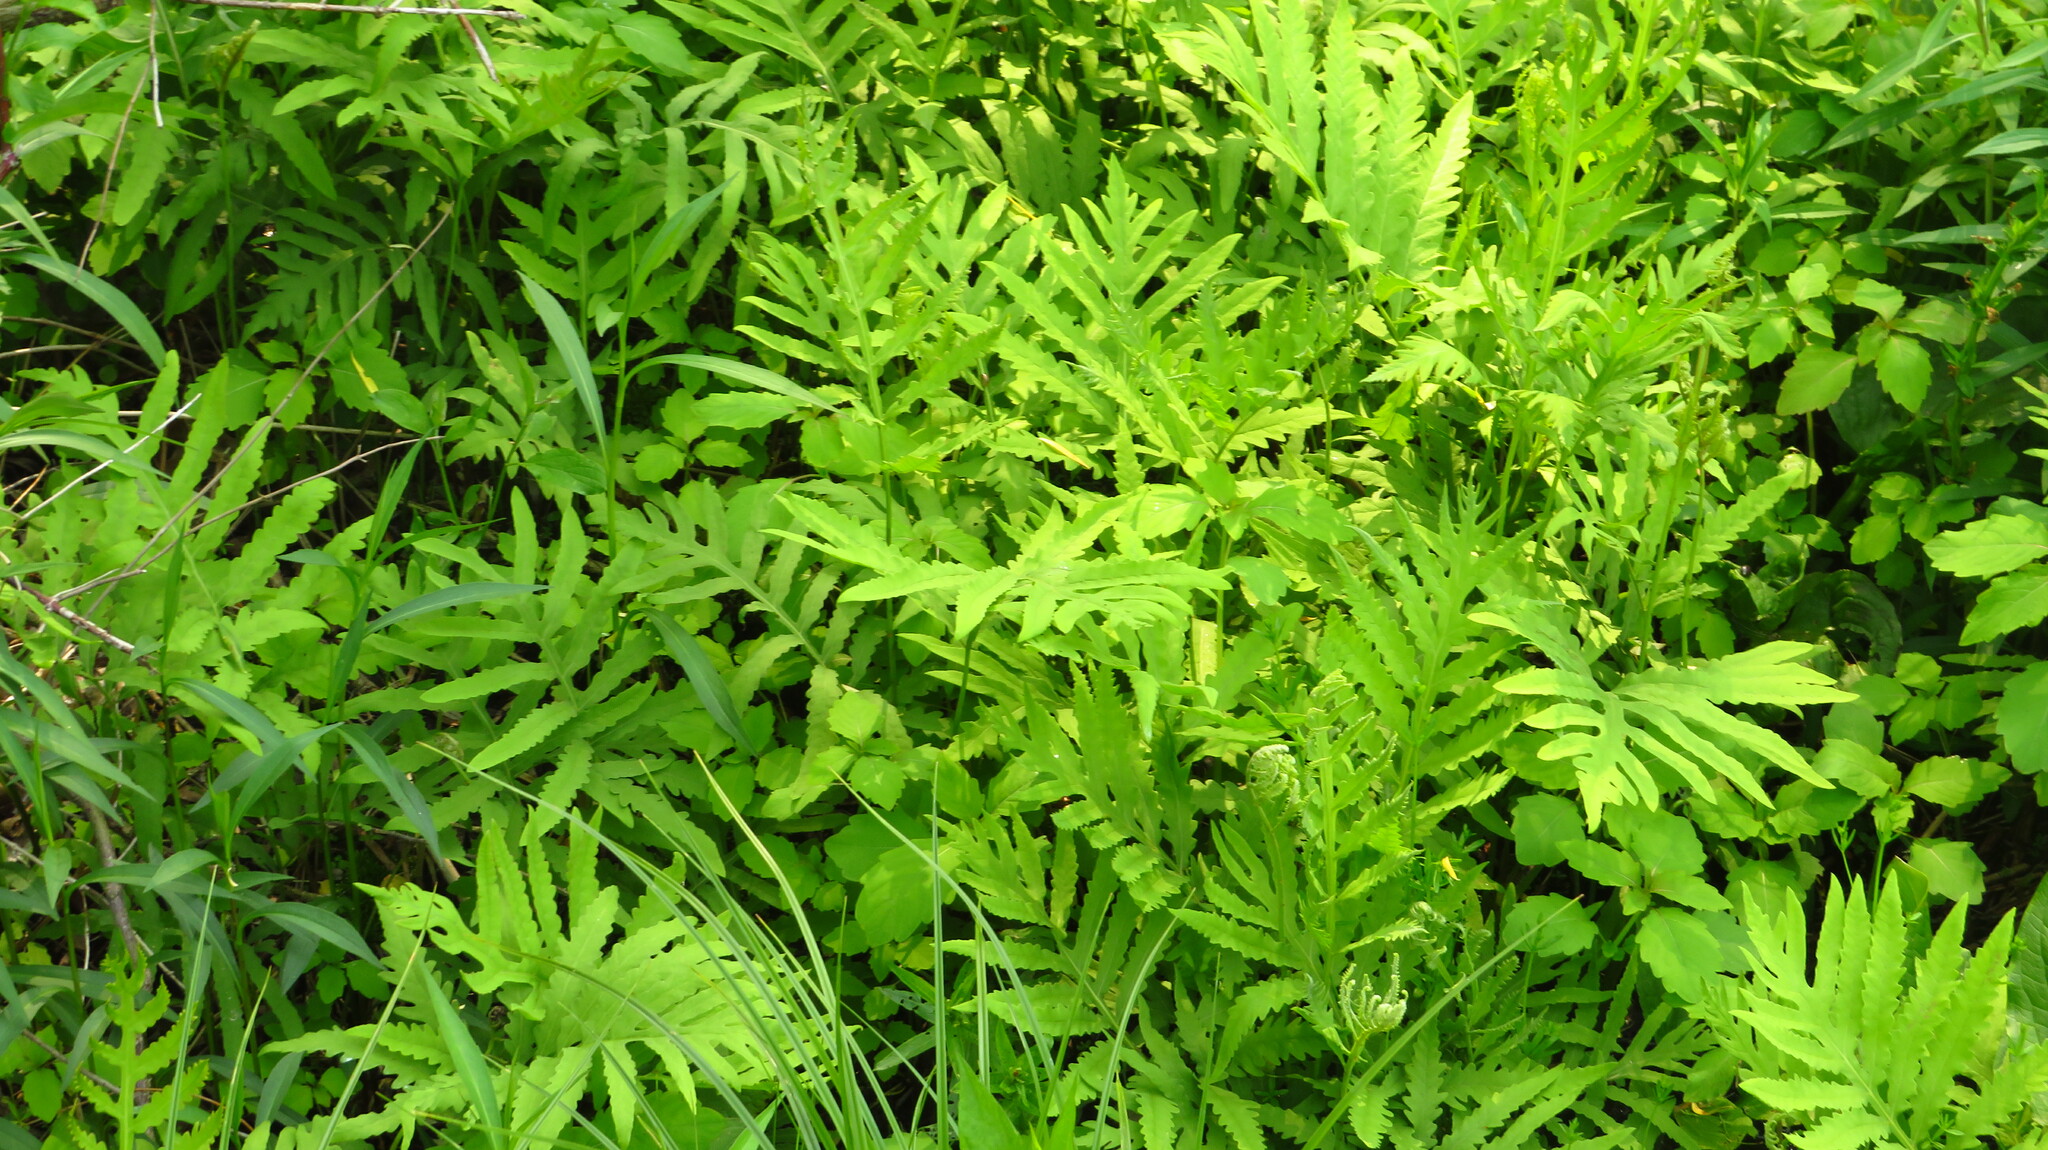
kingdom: Plantae
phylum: Tracheophyta
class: Polypodiopsida
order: Polypodiales
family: Onocleaceae
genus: Onoclea
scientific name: Onoclea sensibilis
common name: Sensitive fern
